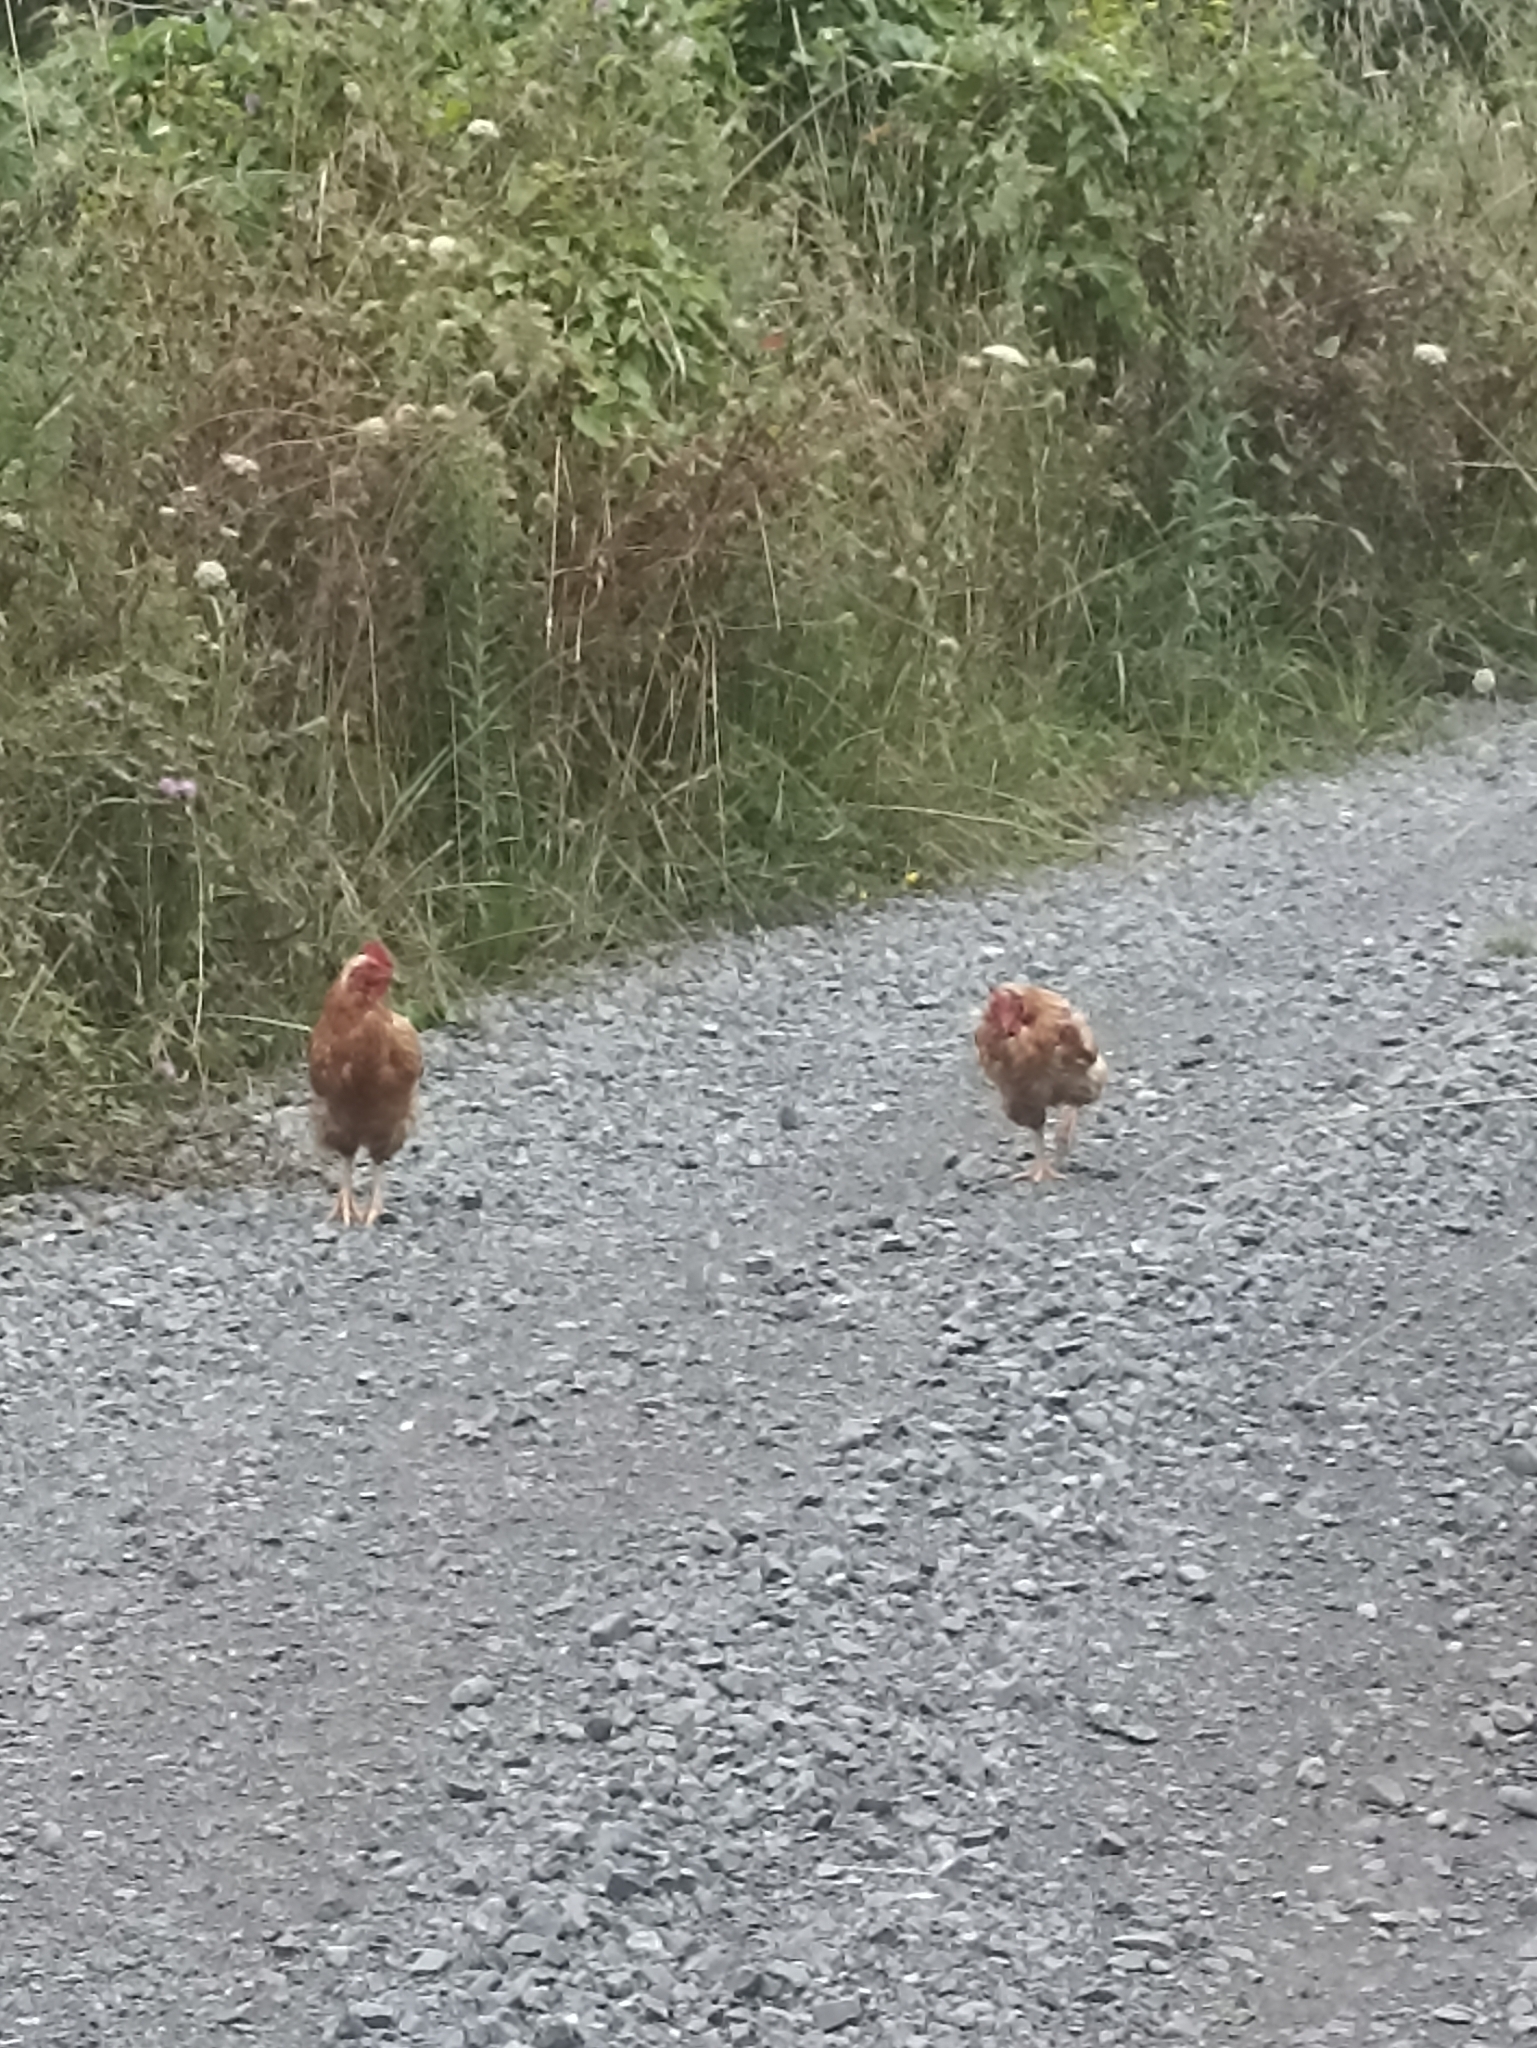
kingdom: Animalia
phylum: Chordata
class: Aves
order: Galliformes
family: Phasianidae
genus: Gallus
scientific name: Gallus gallus
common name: Red junglefowl
